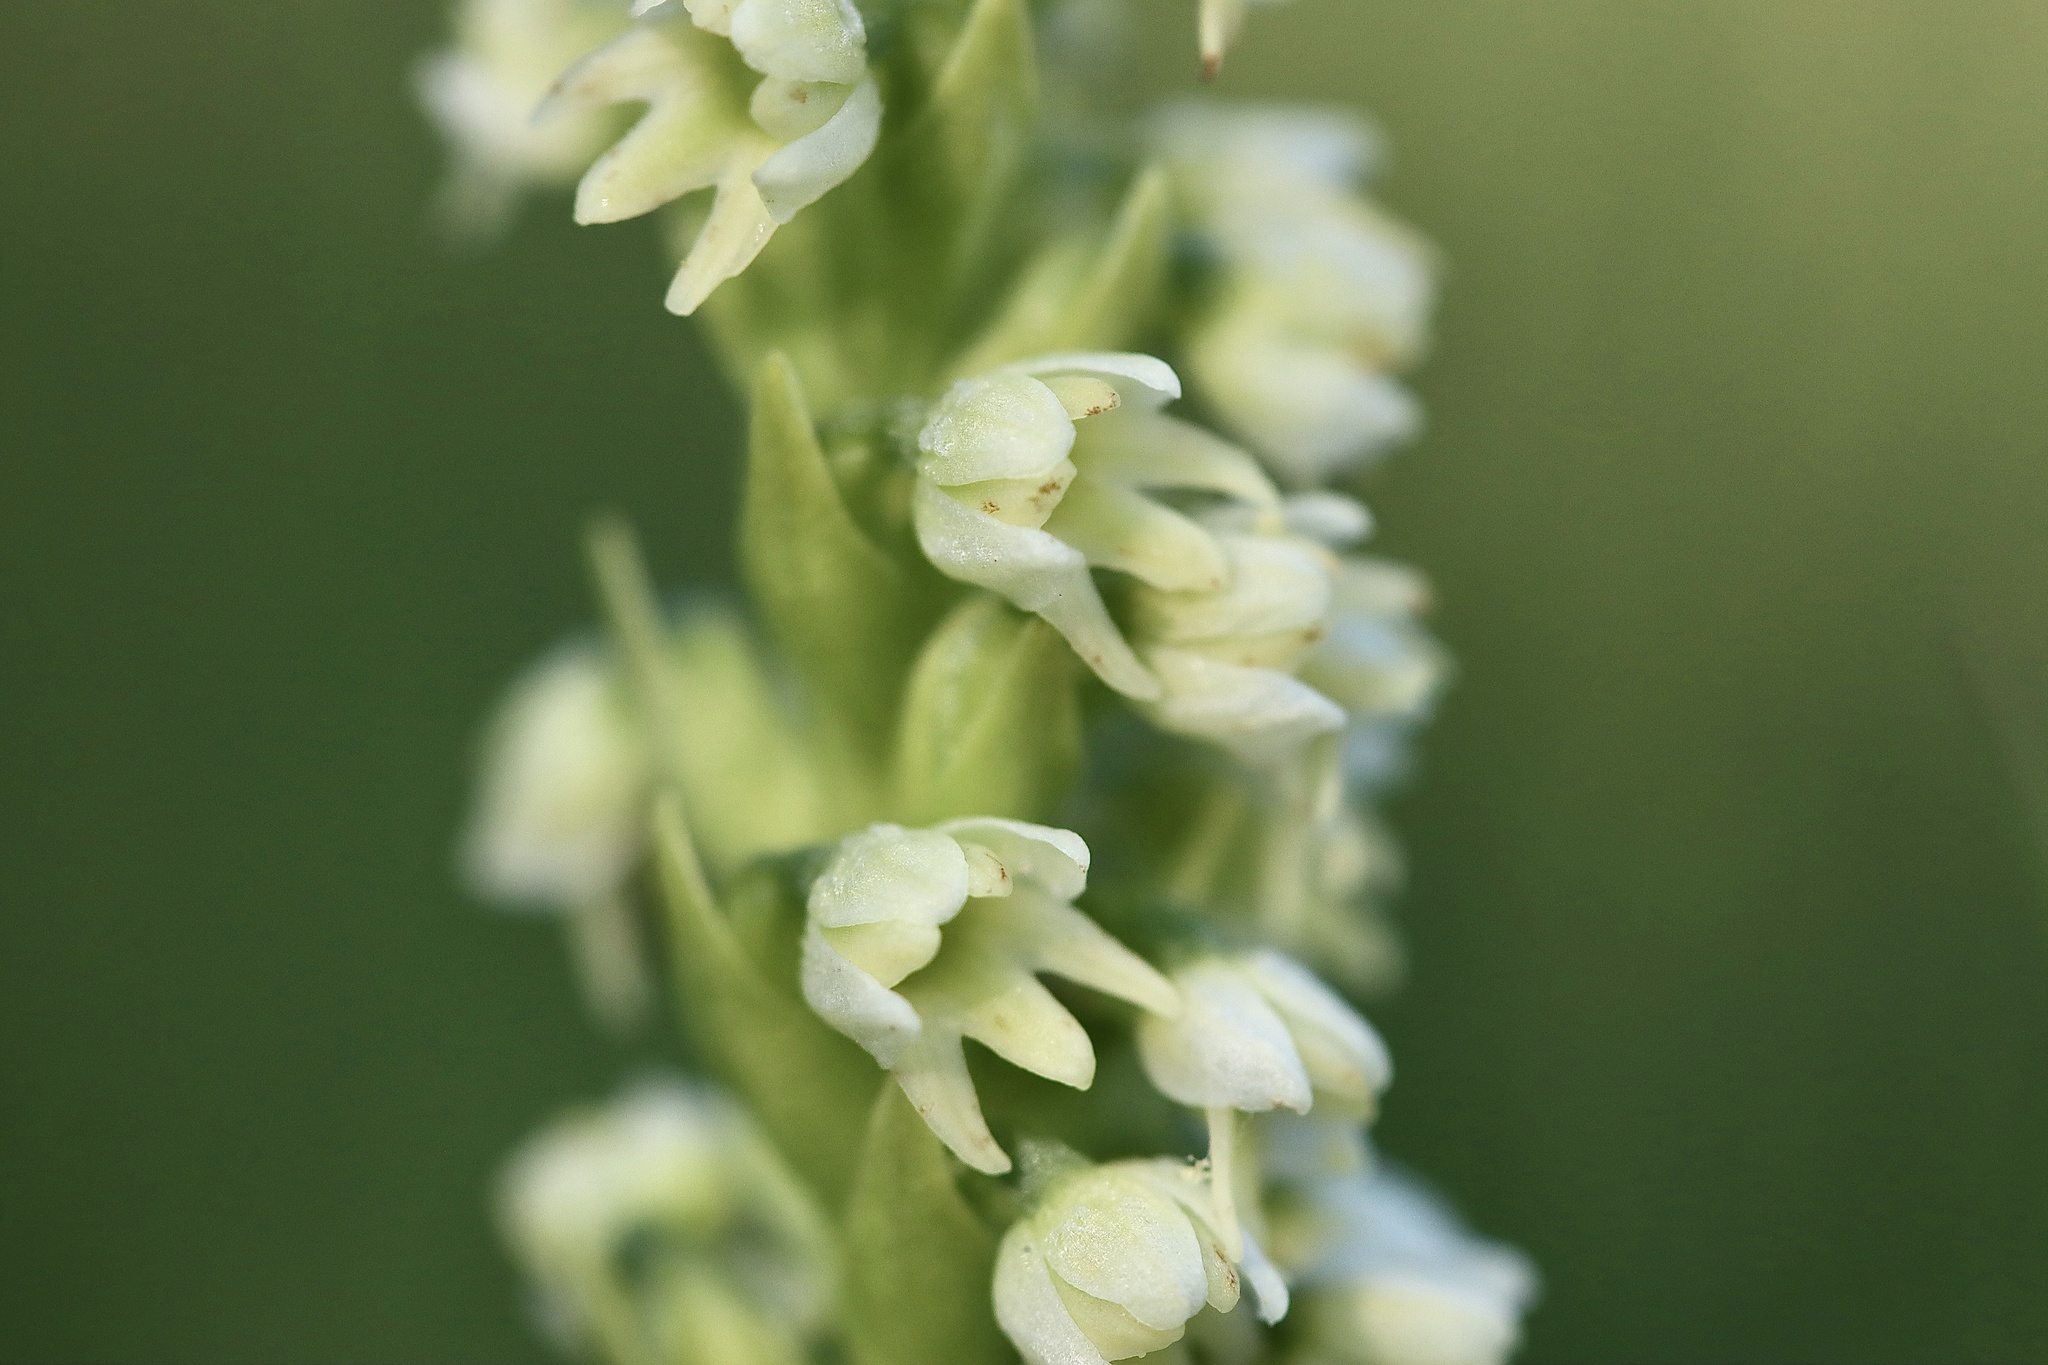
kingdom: Plantae
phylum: Tracheophyta
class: Liliopsida
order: Asparagales
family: Orchidaceae
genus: Pseudorchis
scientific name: Pseudorchis albida
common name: Small-white orchid
